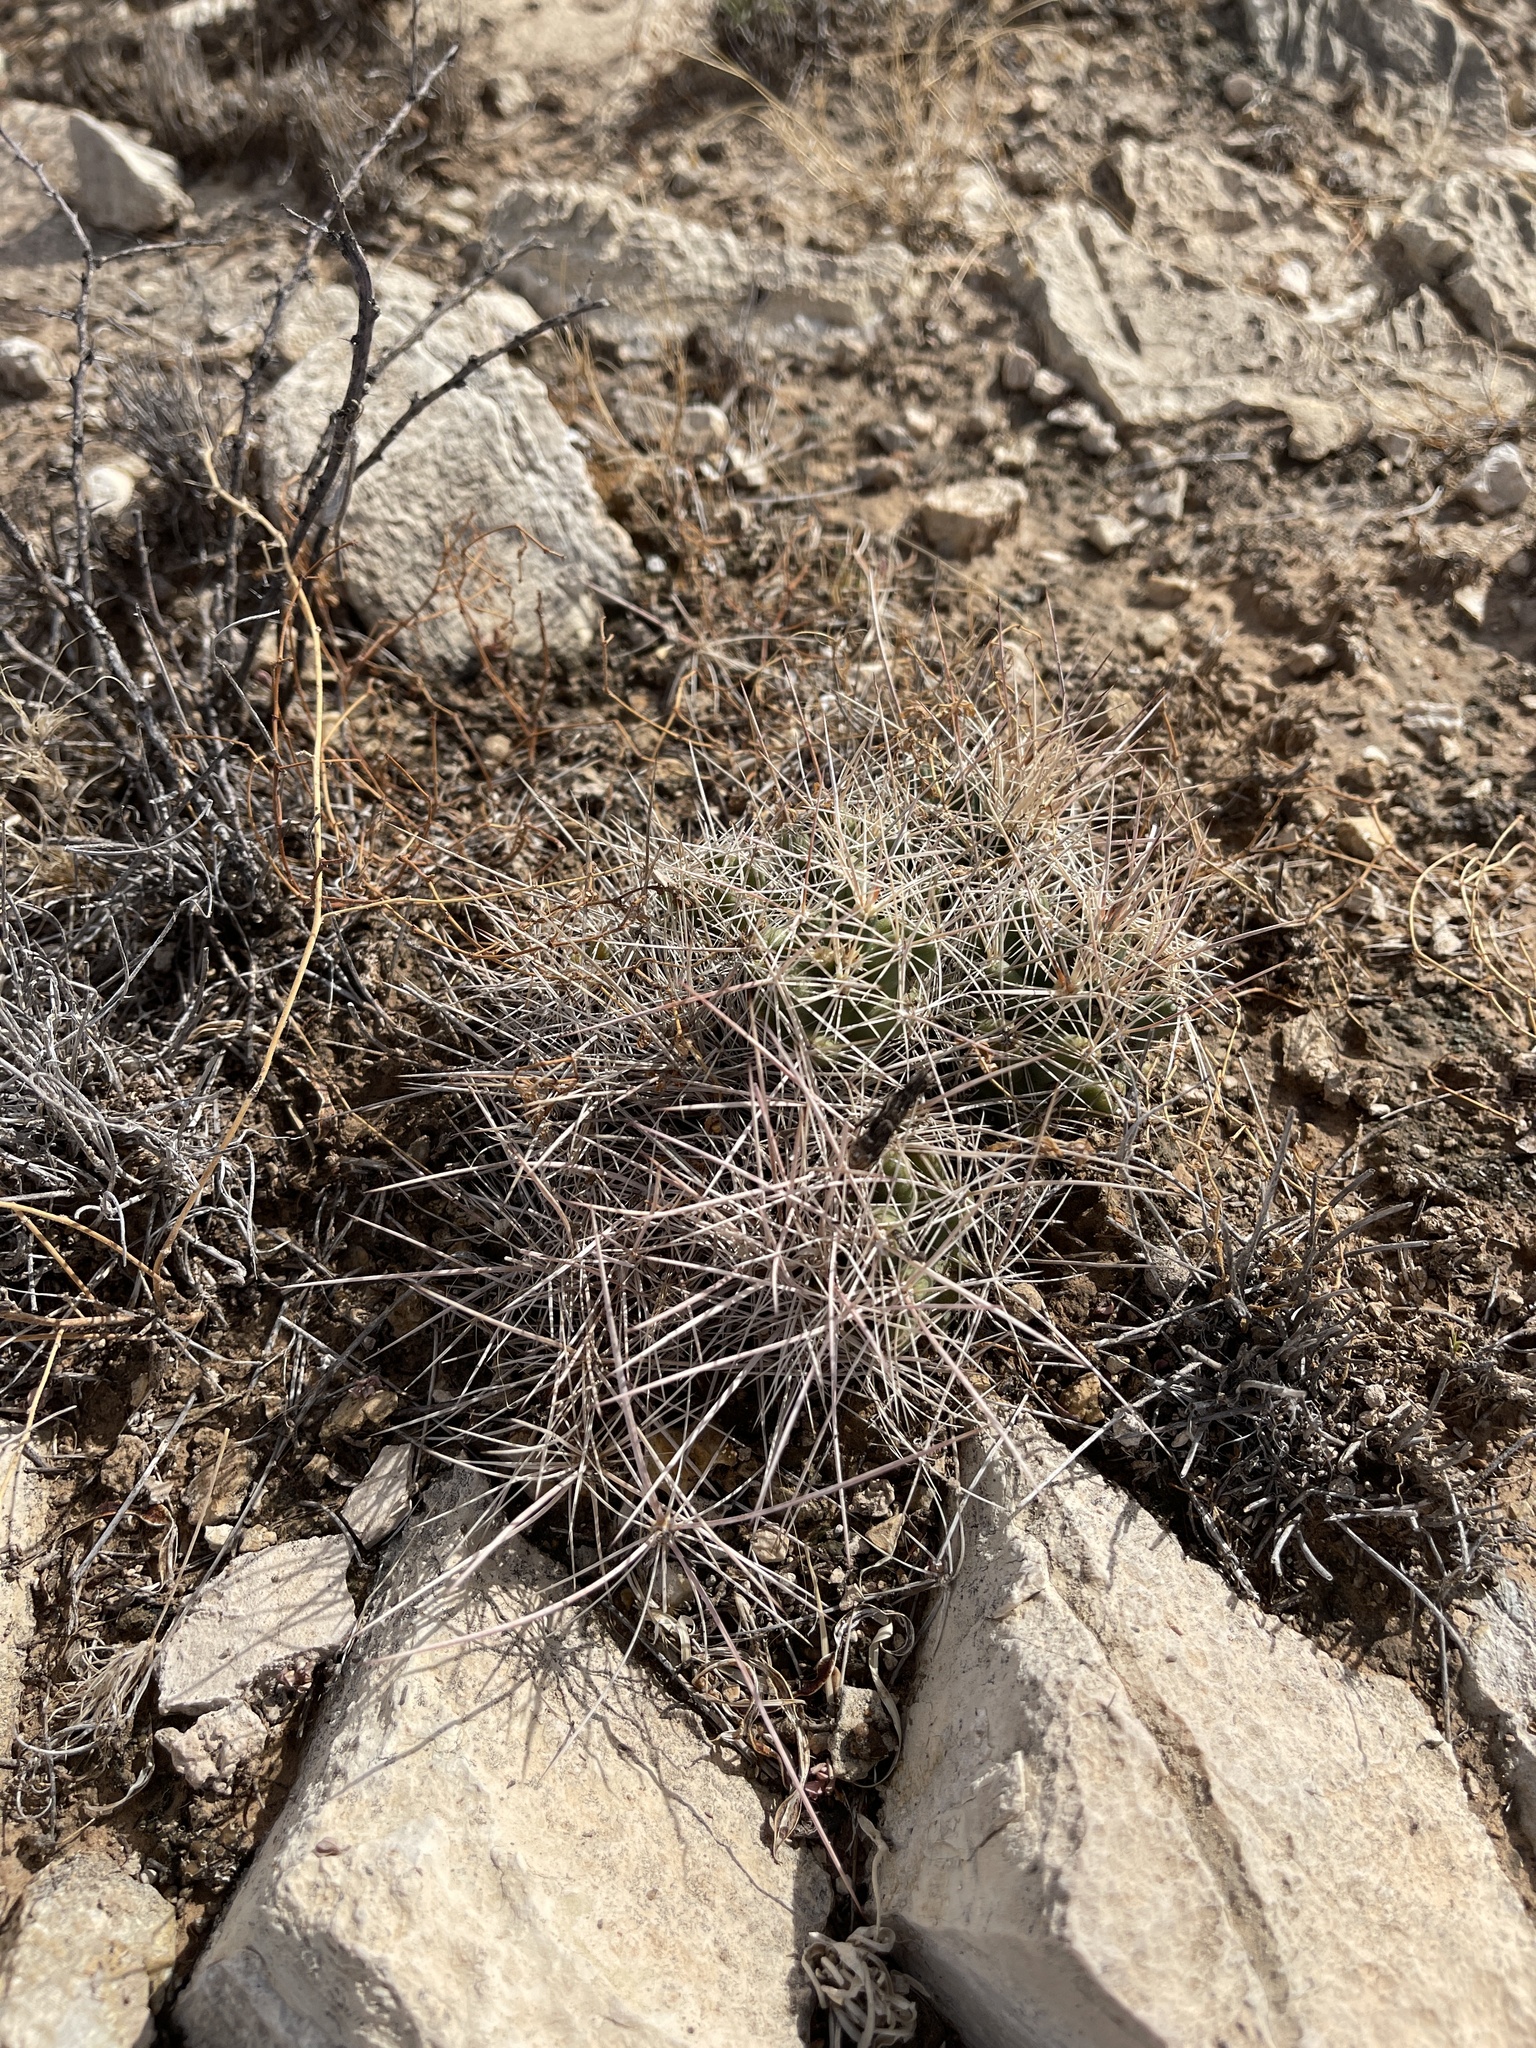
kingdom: Plantae
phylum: Tracheophyta
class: Magnoliopsida
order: Caryophyllales
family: Cactaceae
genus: Coryphantha
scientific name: Coryphantha macromeris
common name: Nipple beehive cactus
